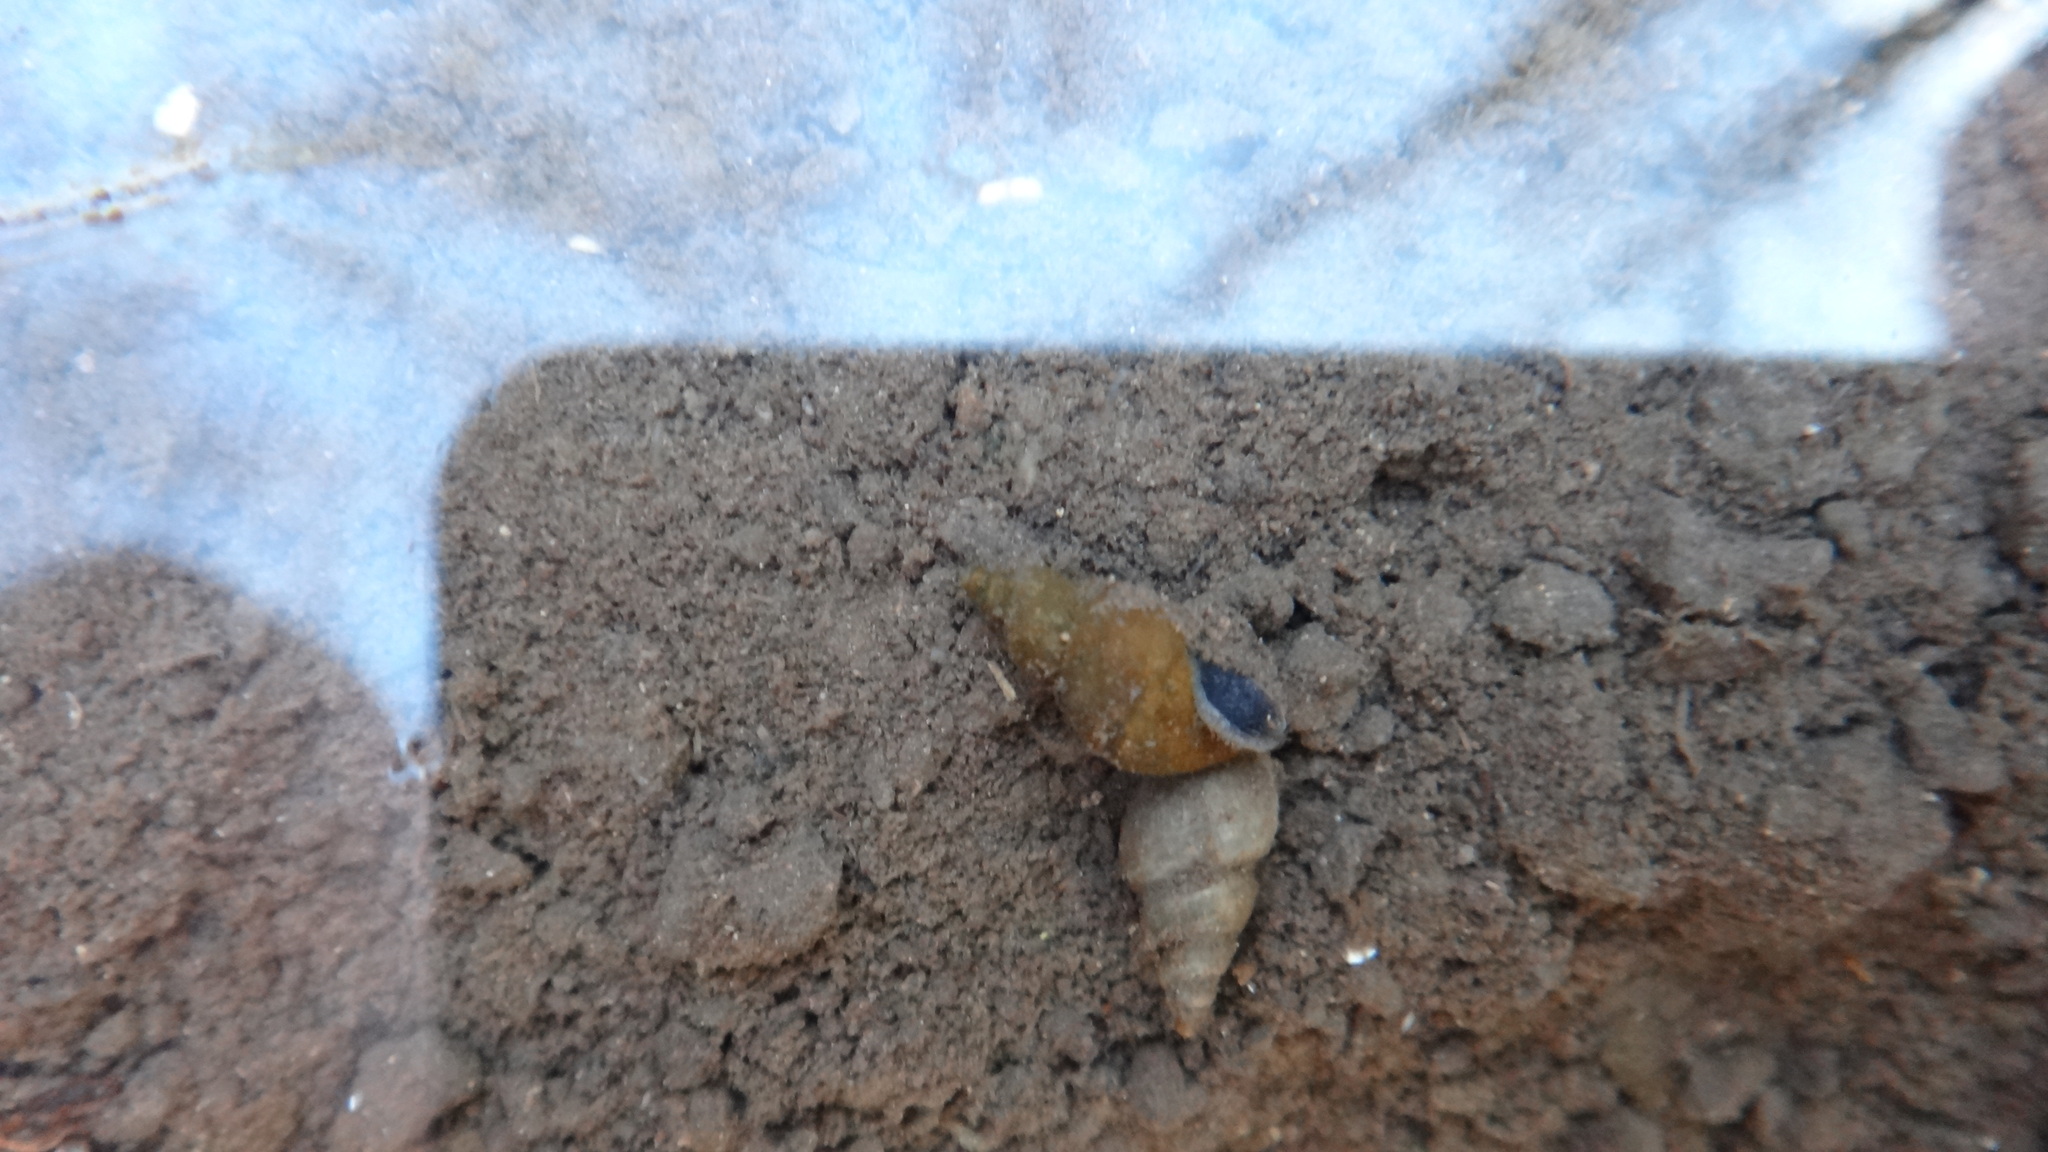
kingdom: Animalia
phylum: Mollusca
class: Gastropoda
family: Lymnaeidae
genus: Galba
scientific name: Galba truncatula
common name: Dwarf pond snail
